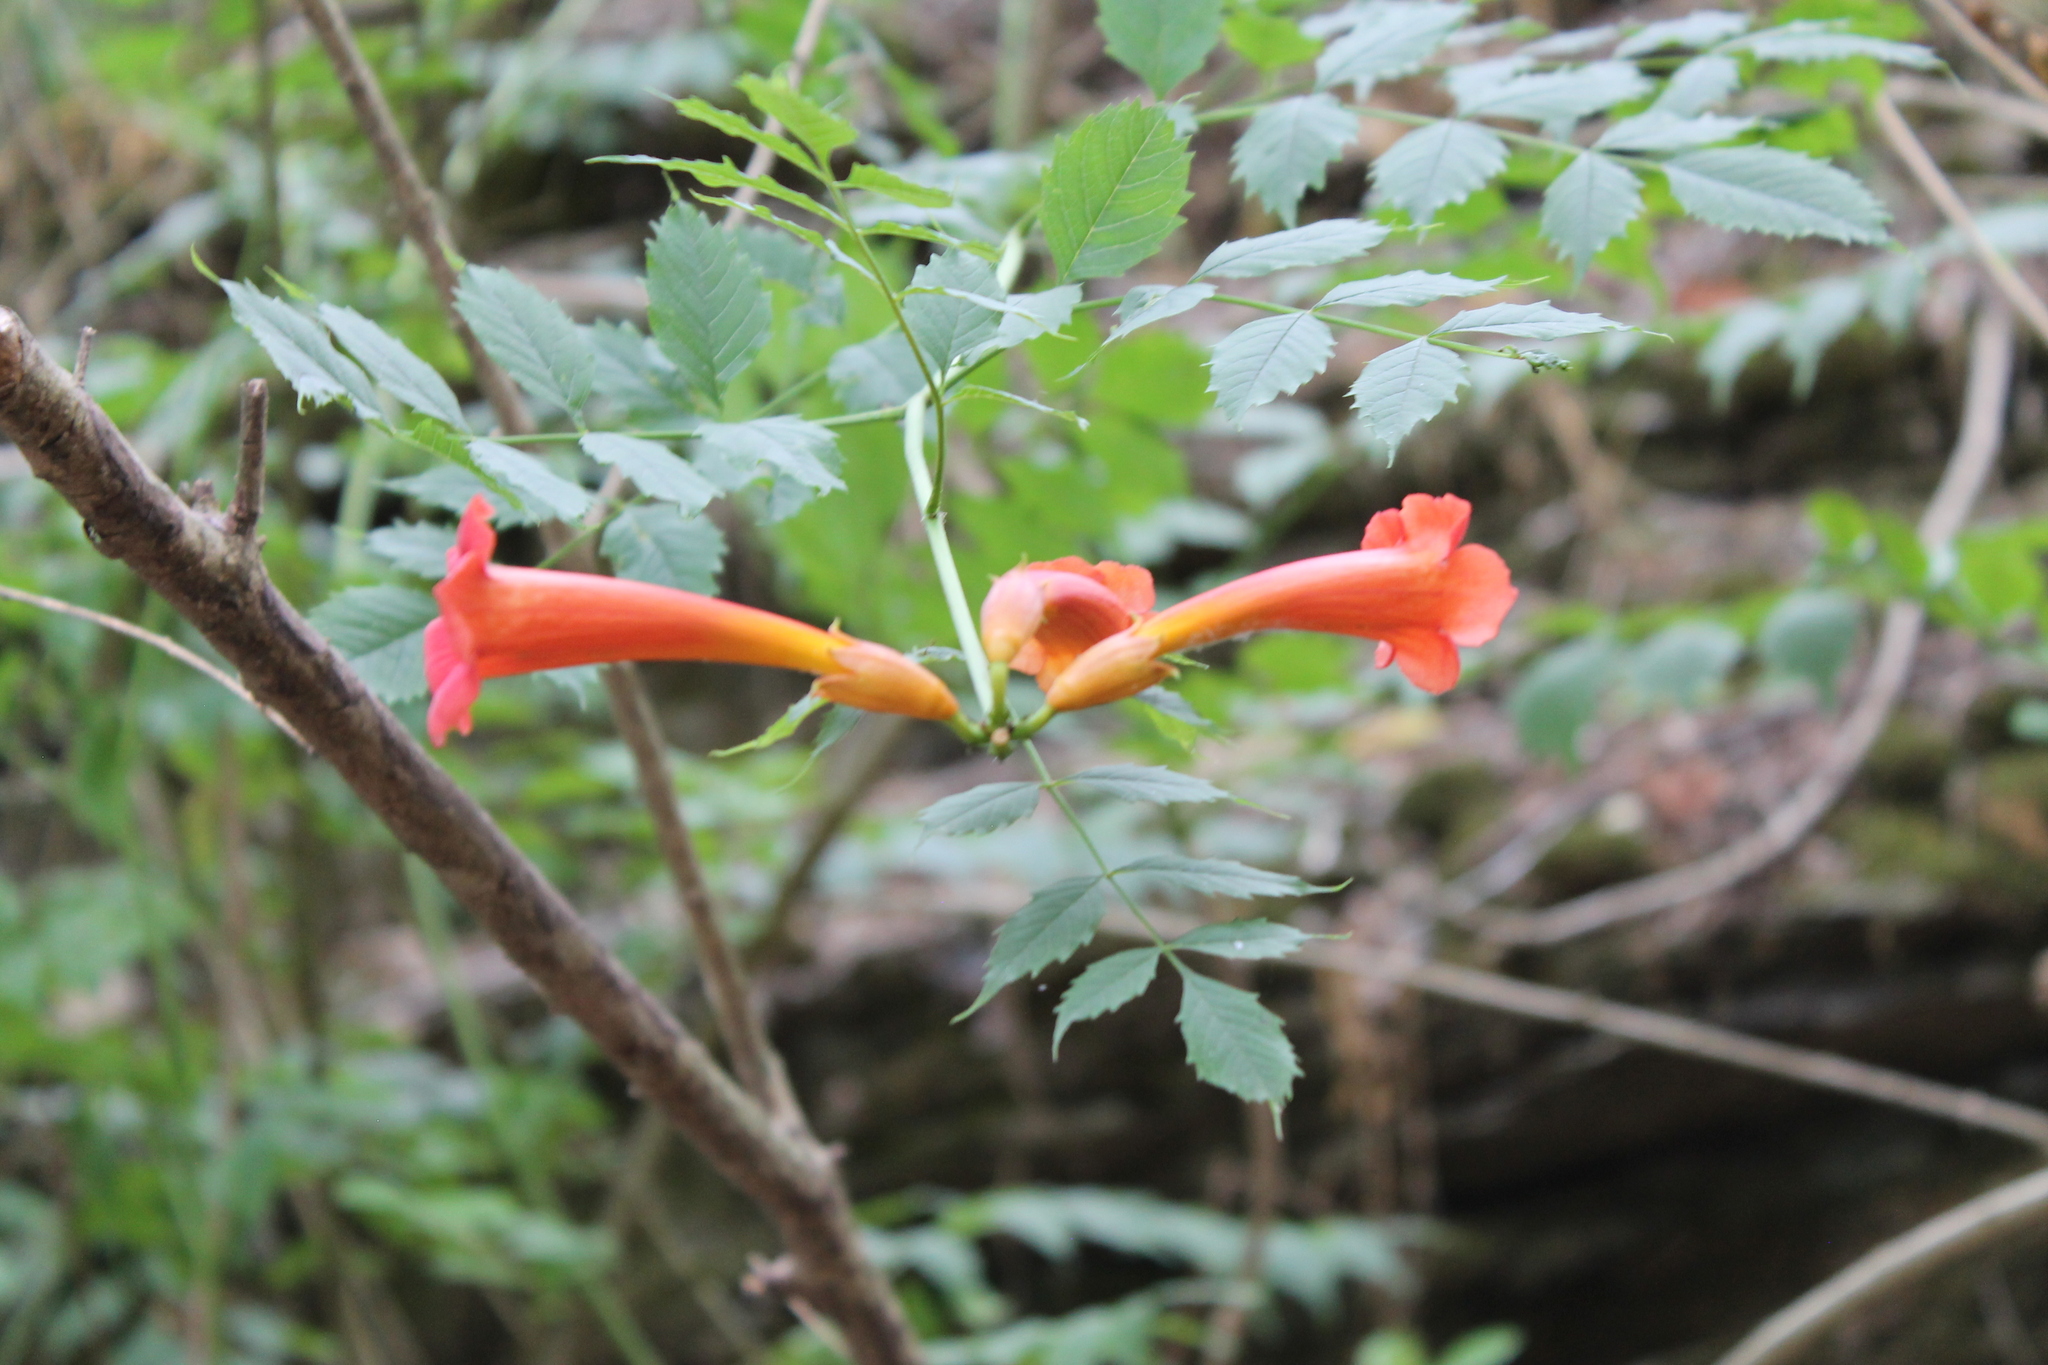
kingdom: Plantae
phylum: Tracheophyta
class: Magnoliopsida
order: Lamiales
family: Bignoniaceae
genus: Campsis
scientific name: Campsis radicans
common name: Trumpet-creeper
